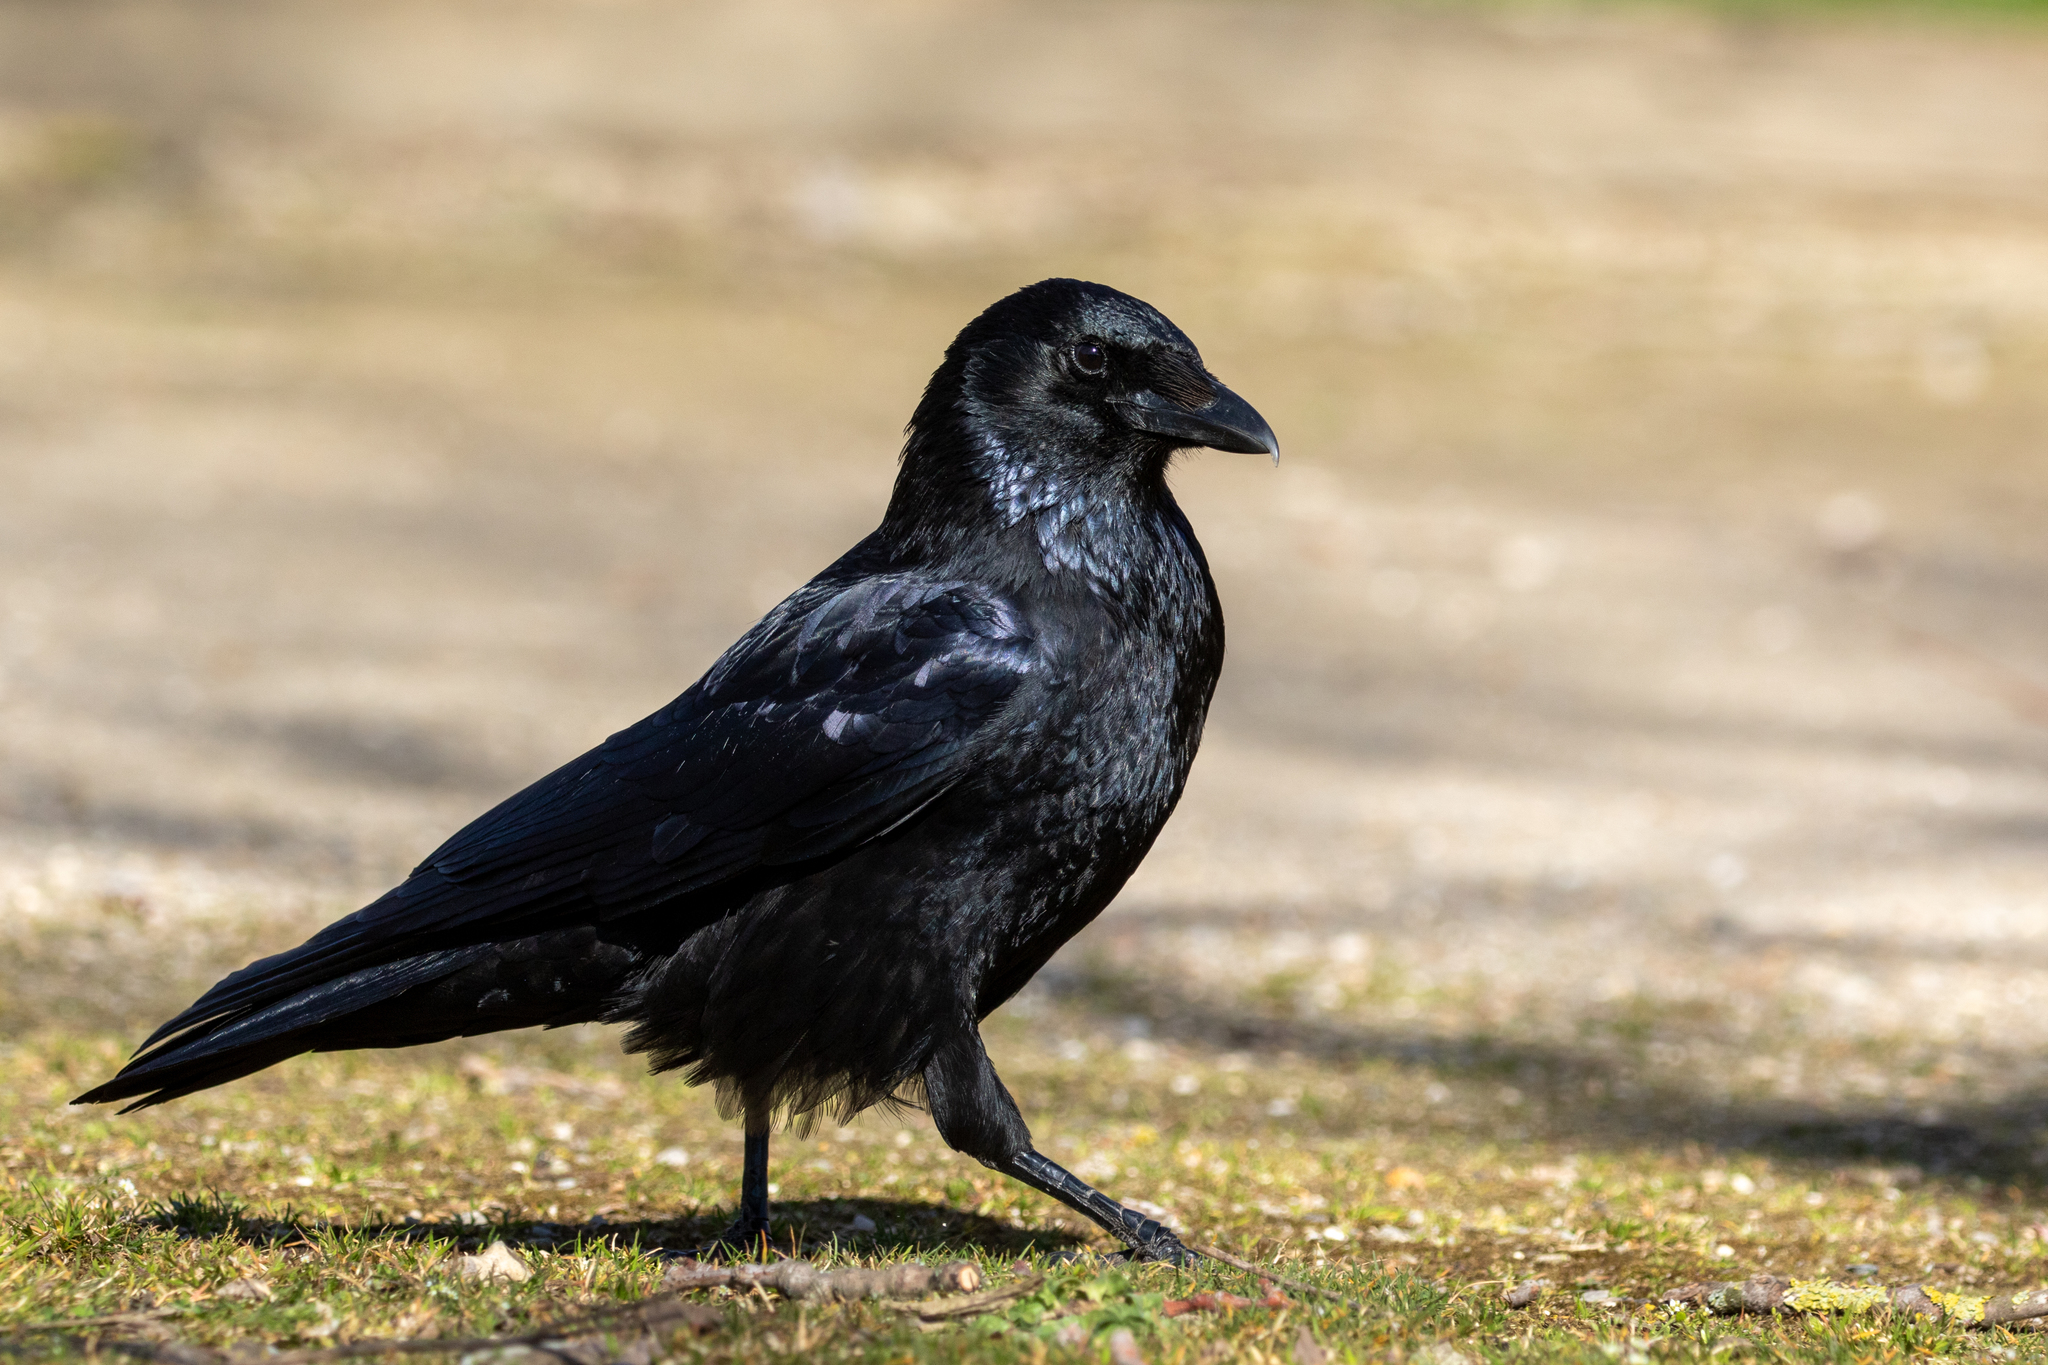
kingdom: Animalia
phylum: Chordata
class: Aves
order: Passeriformes
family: Corvidae
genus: Corvus
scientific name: Corvus corone
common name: Carrion crow
